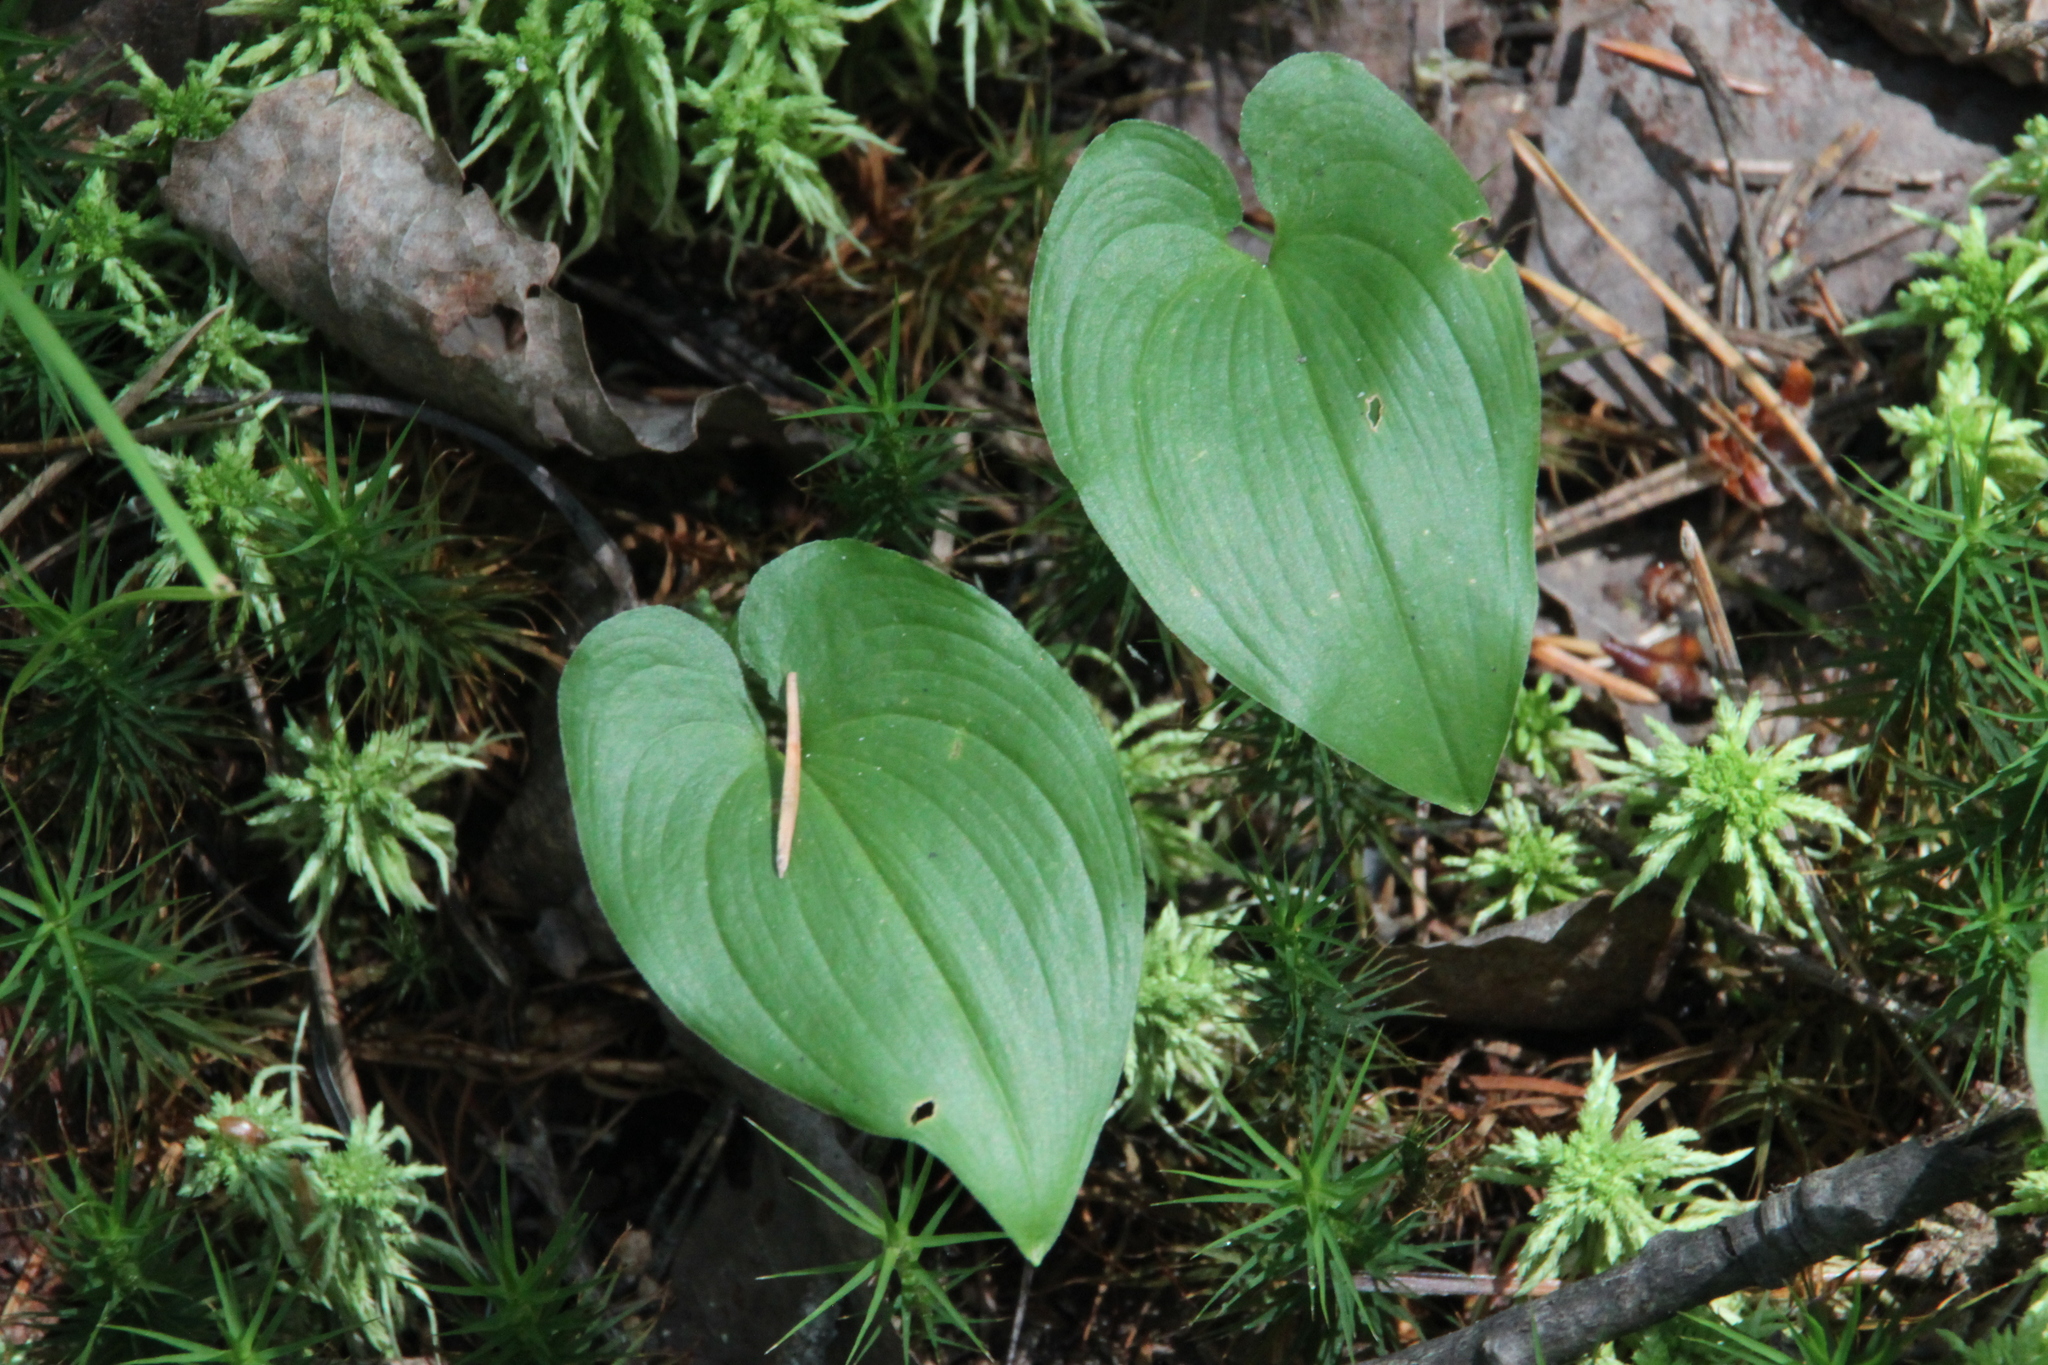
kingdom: Plantae
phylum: Tracheophyta
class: Liliopsida
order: Asparagales
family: Asparagaceae
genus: Maianthemum
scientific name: Maianthemum bifolium
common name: May lily
